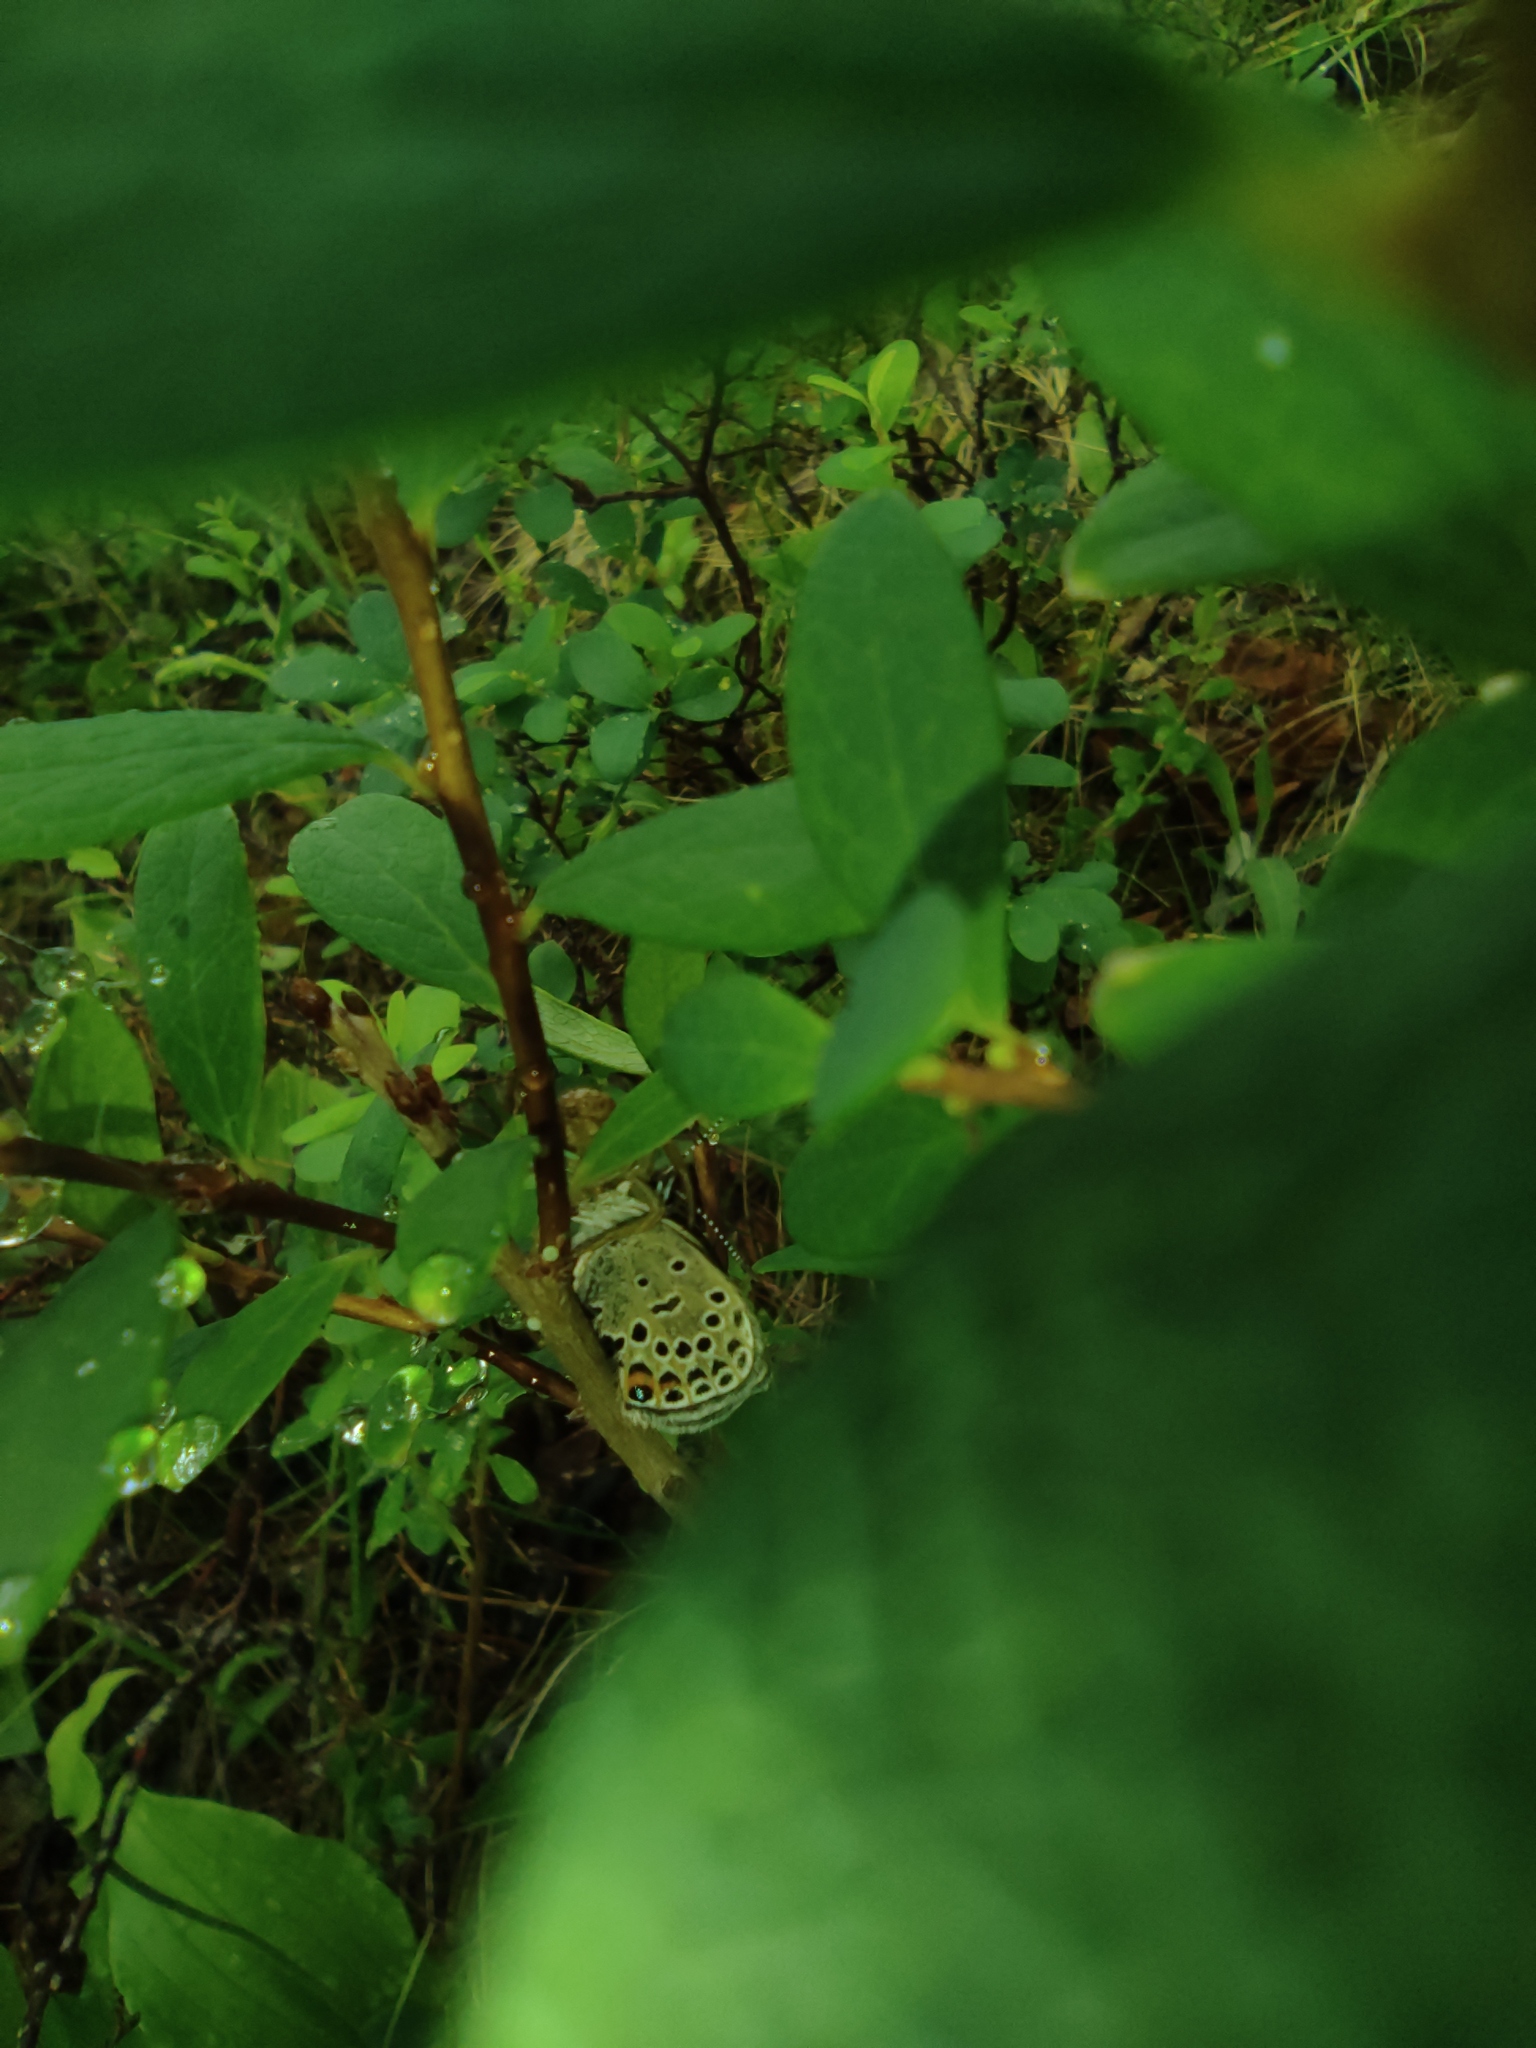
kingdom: Plantae
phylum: Tracheophyta
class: Magnoliopsida
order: Ericales
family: Ericaceae
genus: Vaccinium
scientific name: Vaccinium uliginosum
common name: Bog bilberry
